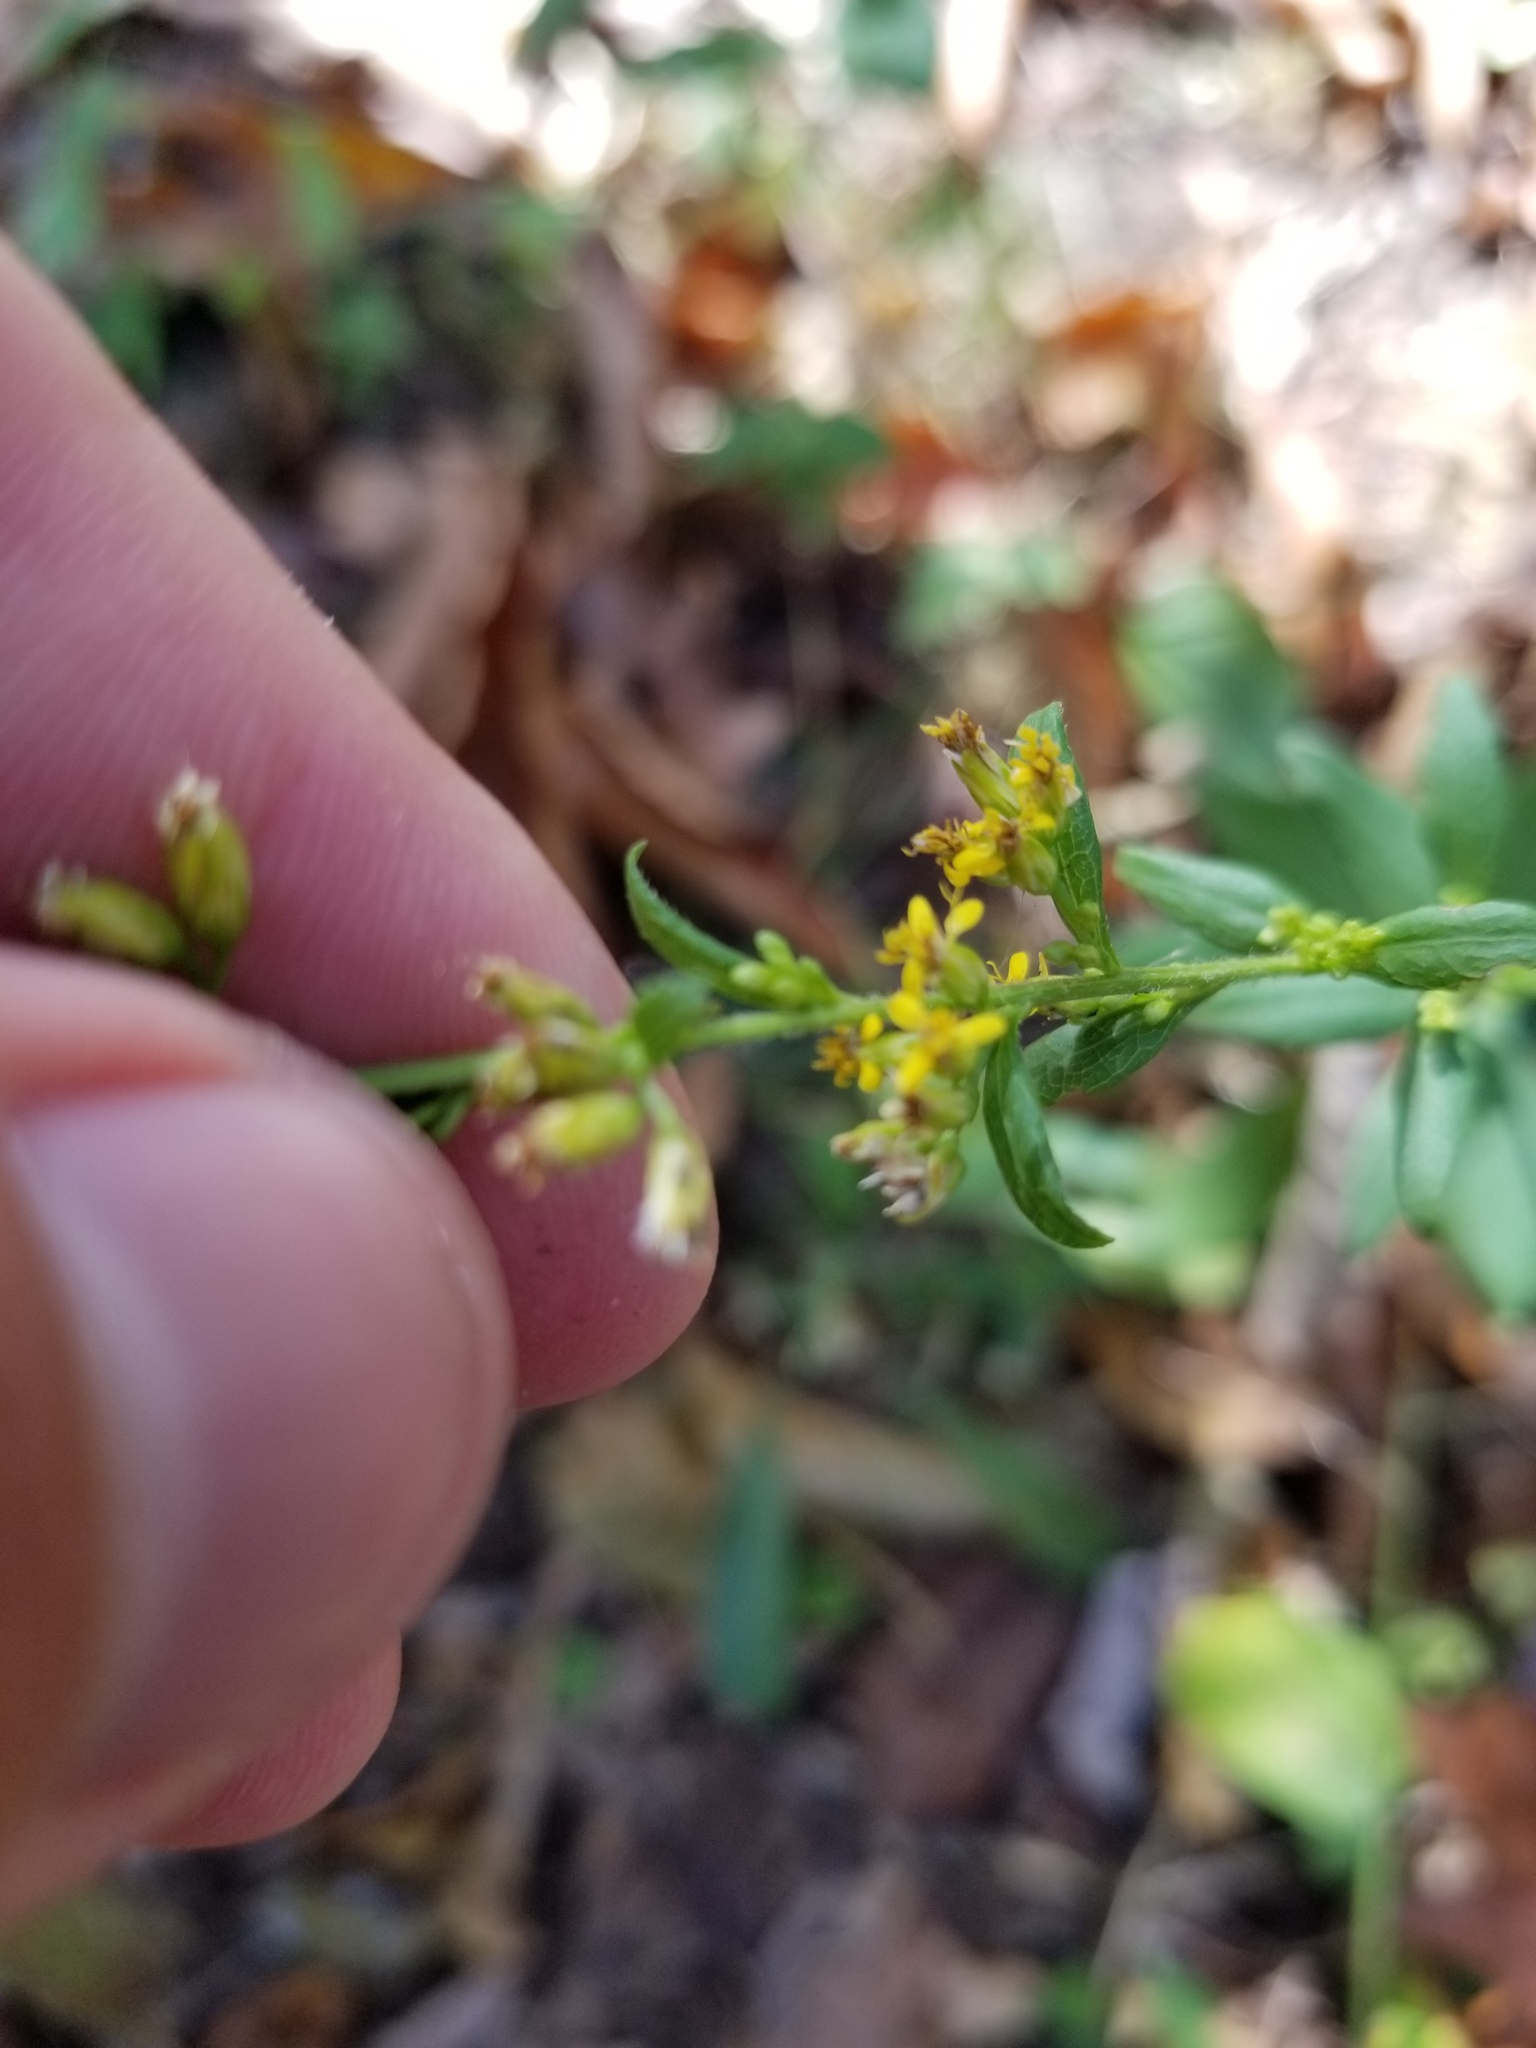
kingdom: Plantae
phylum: Tracheophyta
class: Magnoliopsida
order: Asterales
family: Asteraceae
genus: Solidago
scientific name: Solidago ulmifolia
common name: Elm-leaf goldenrod
